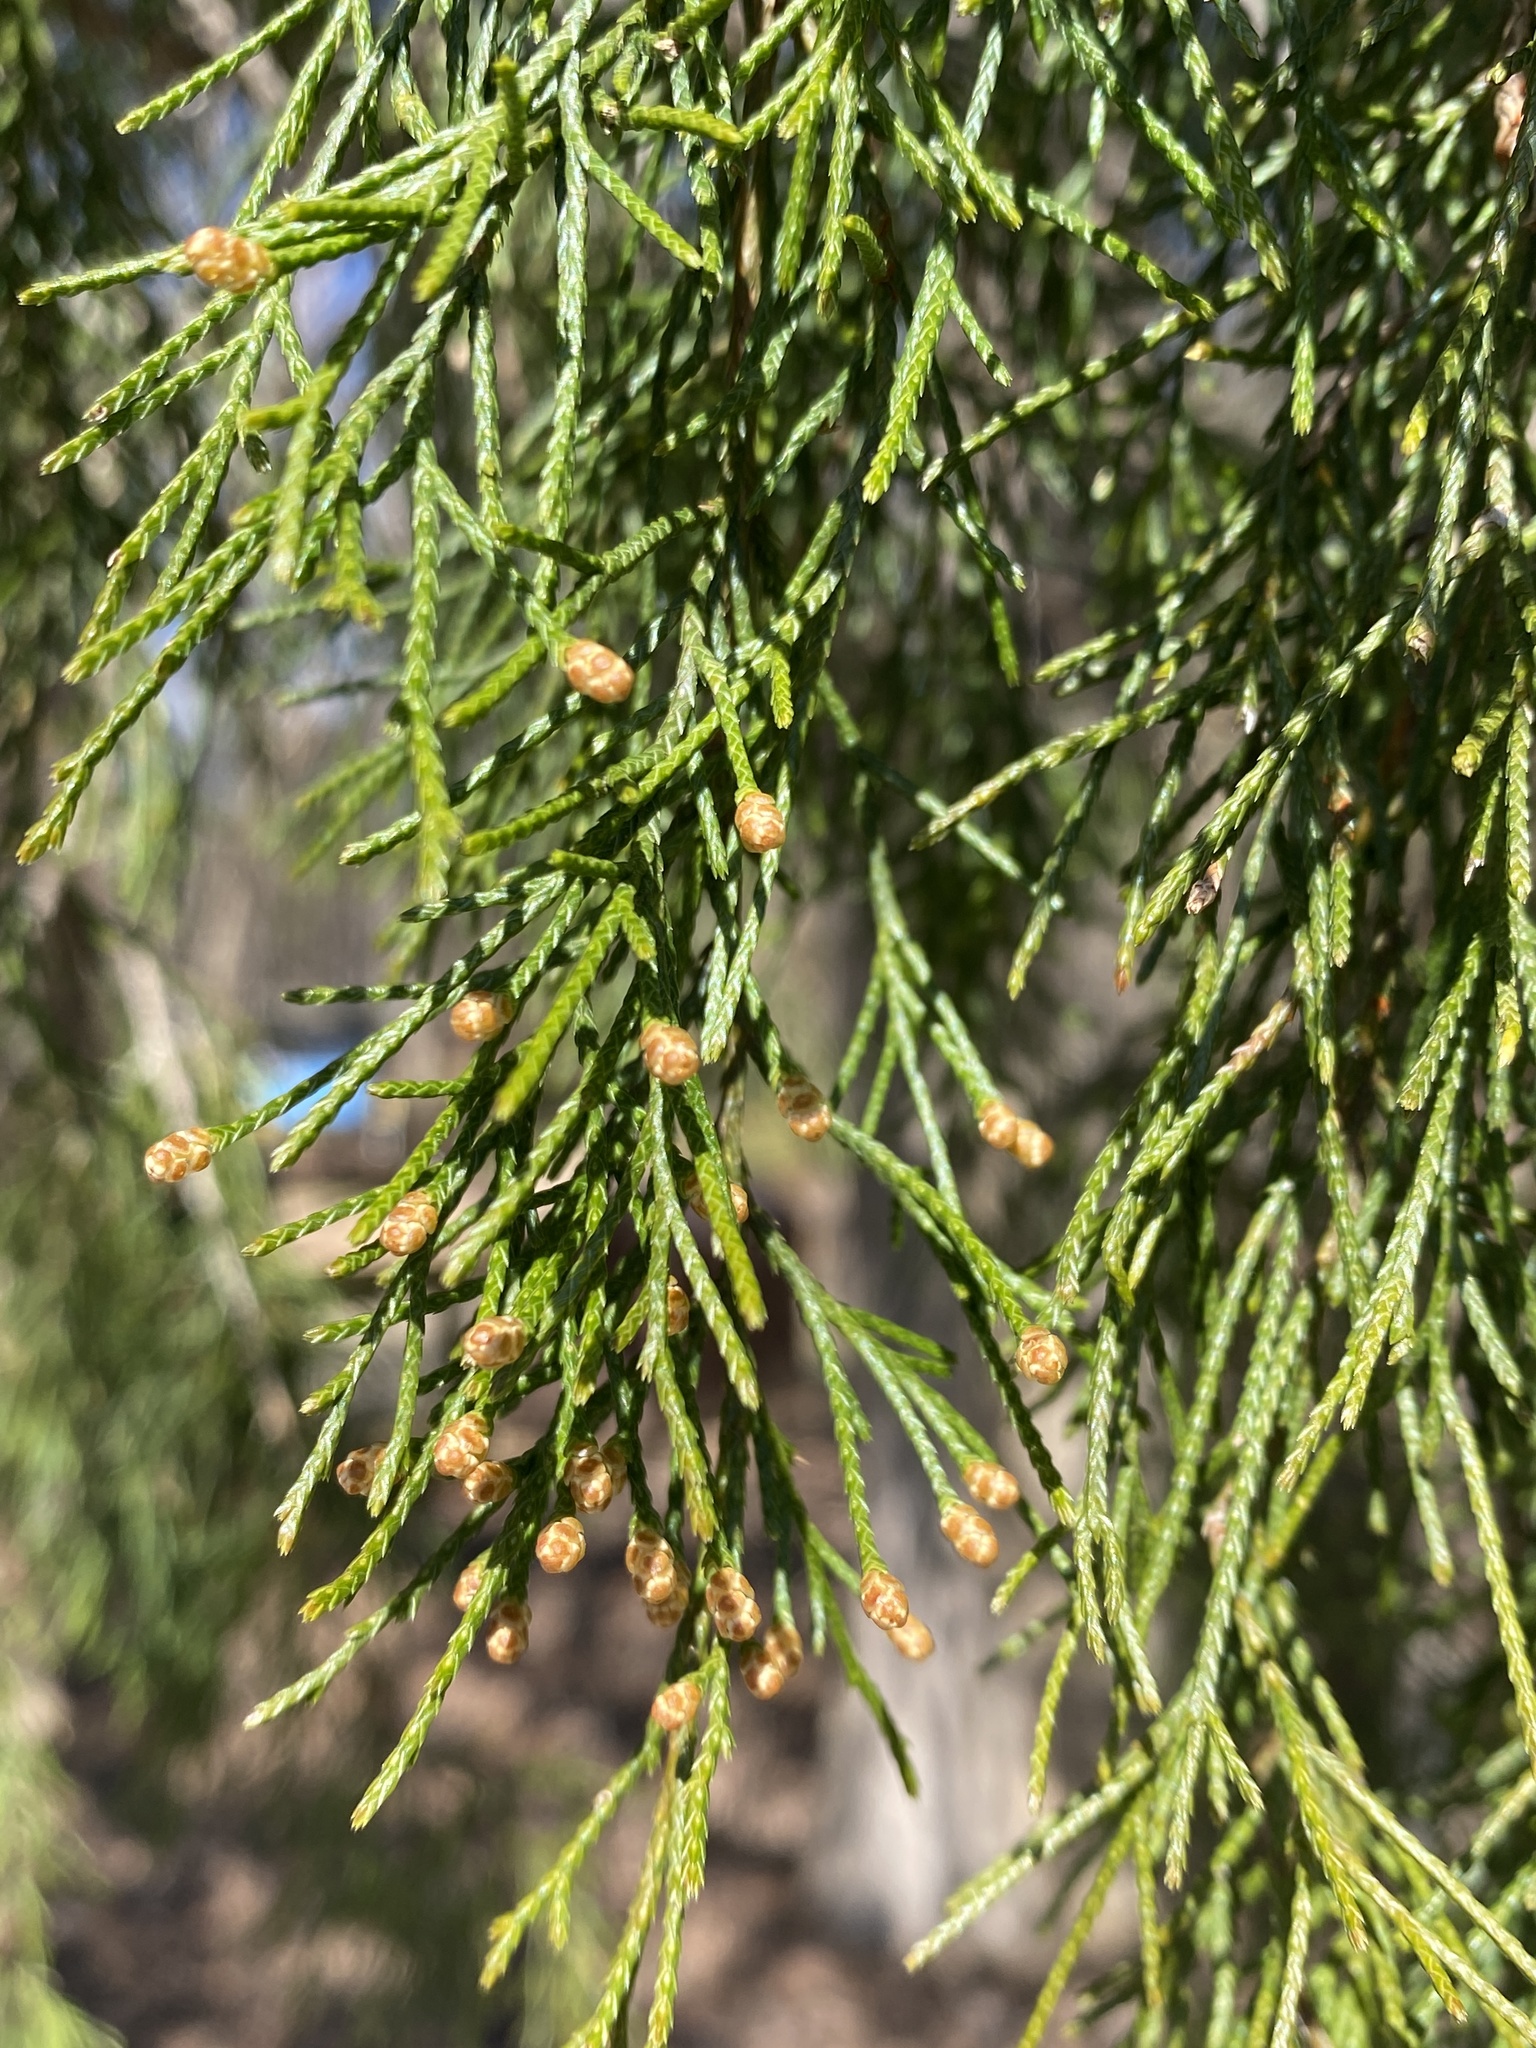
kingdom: Plantae
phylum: Tracheophyta
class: Pinopsida
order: Pinales
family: Cupressaceae
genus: Juniperus
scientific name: Juniperus virginiana
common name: Red juniper
